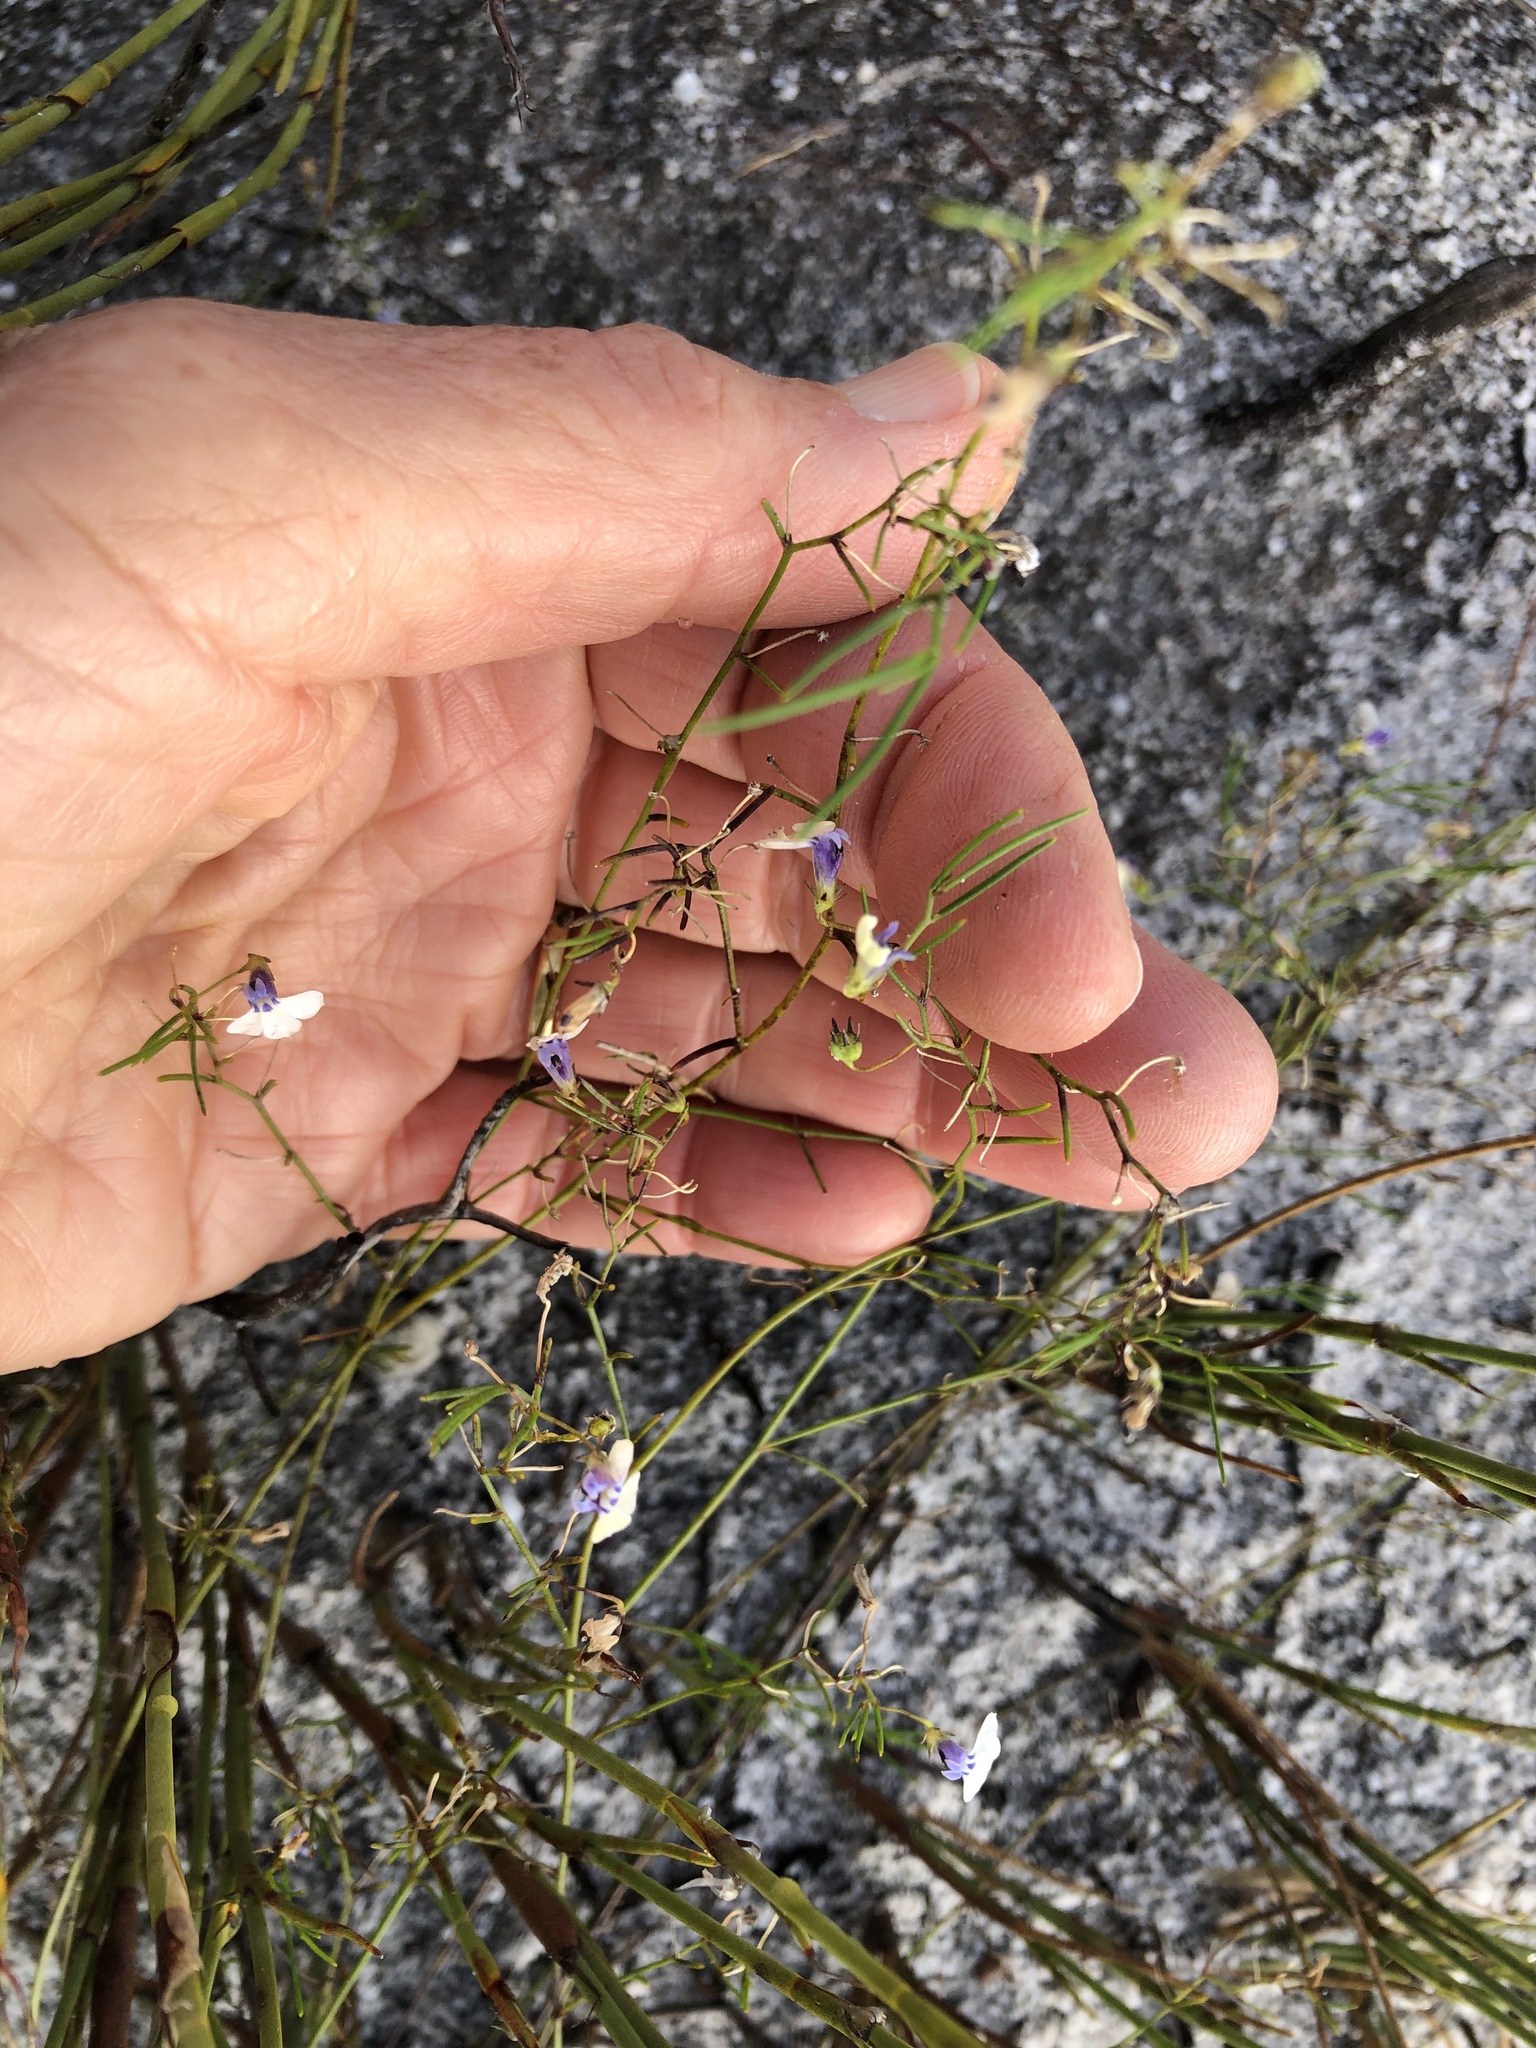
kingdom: Plantae
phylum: Tracheophyta
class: Magnoliopsida
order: Asterales
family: Campanulaceae
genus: Lobelia
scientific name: Lobelia setacea
